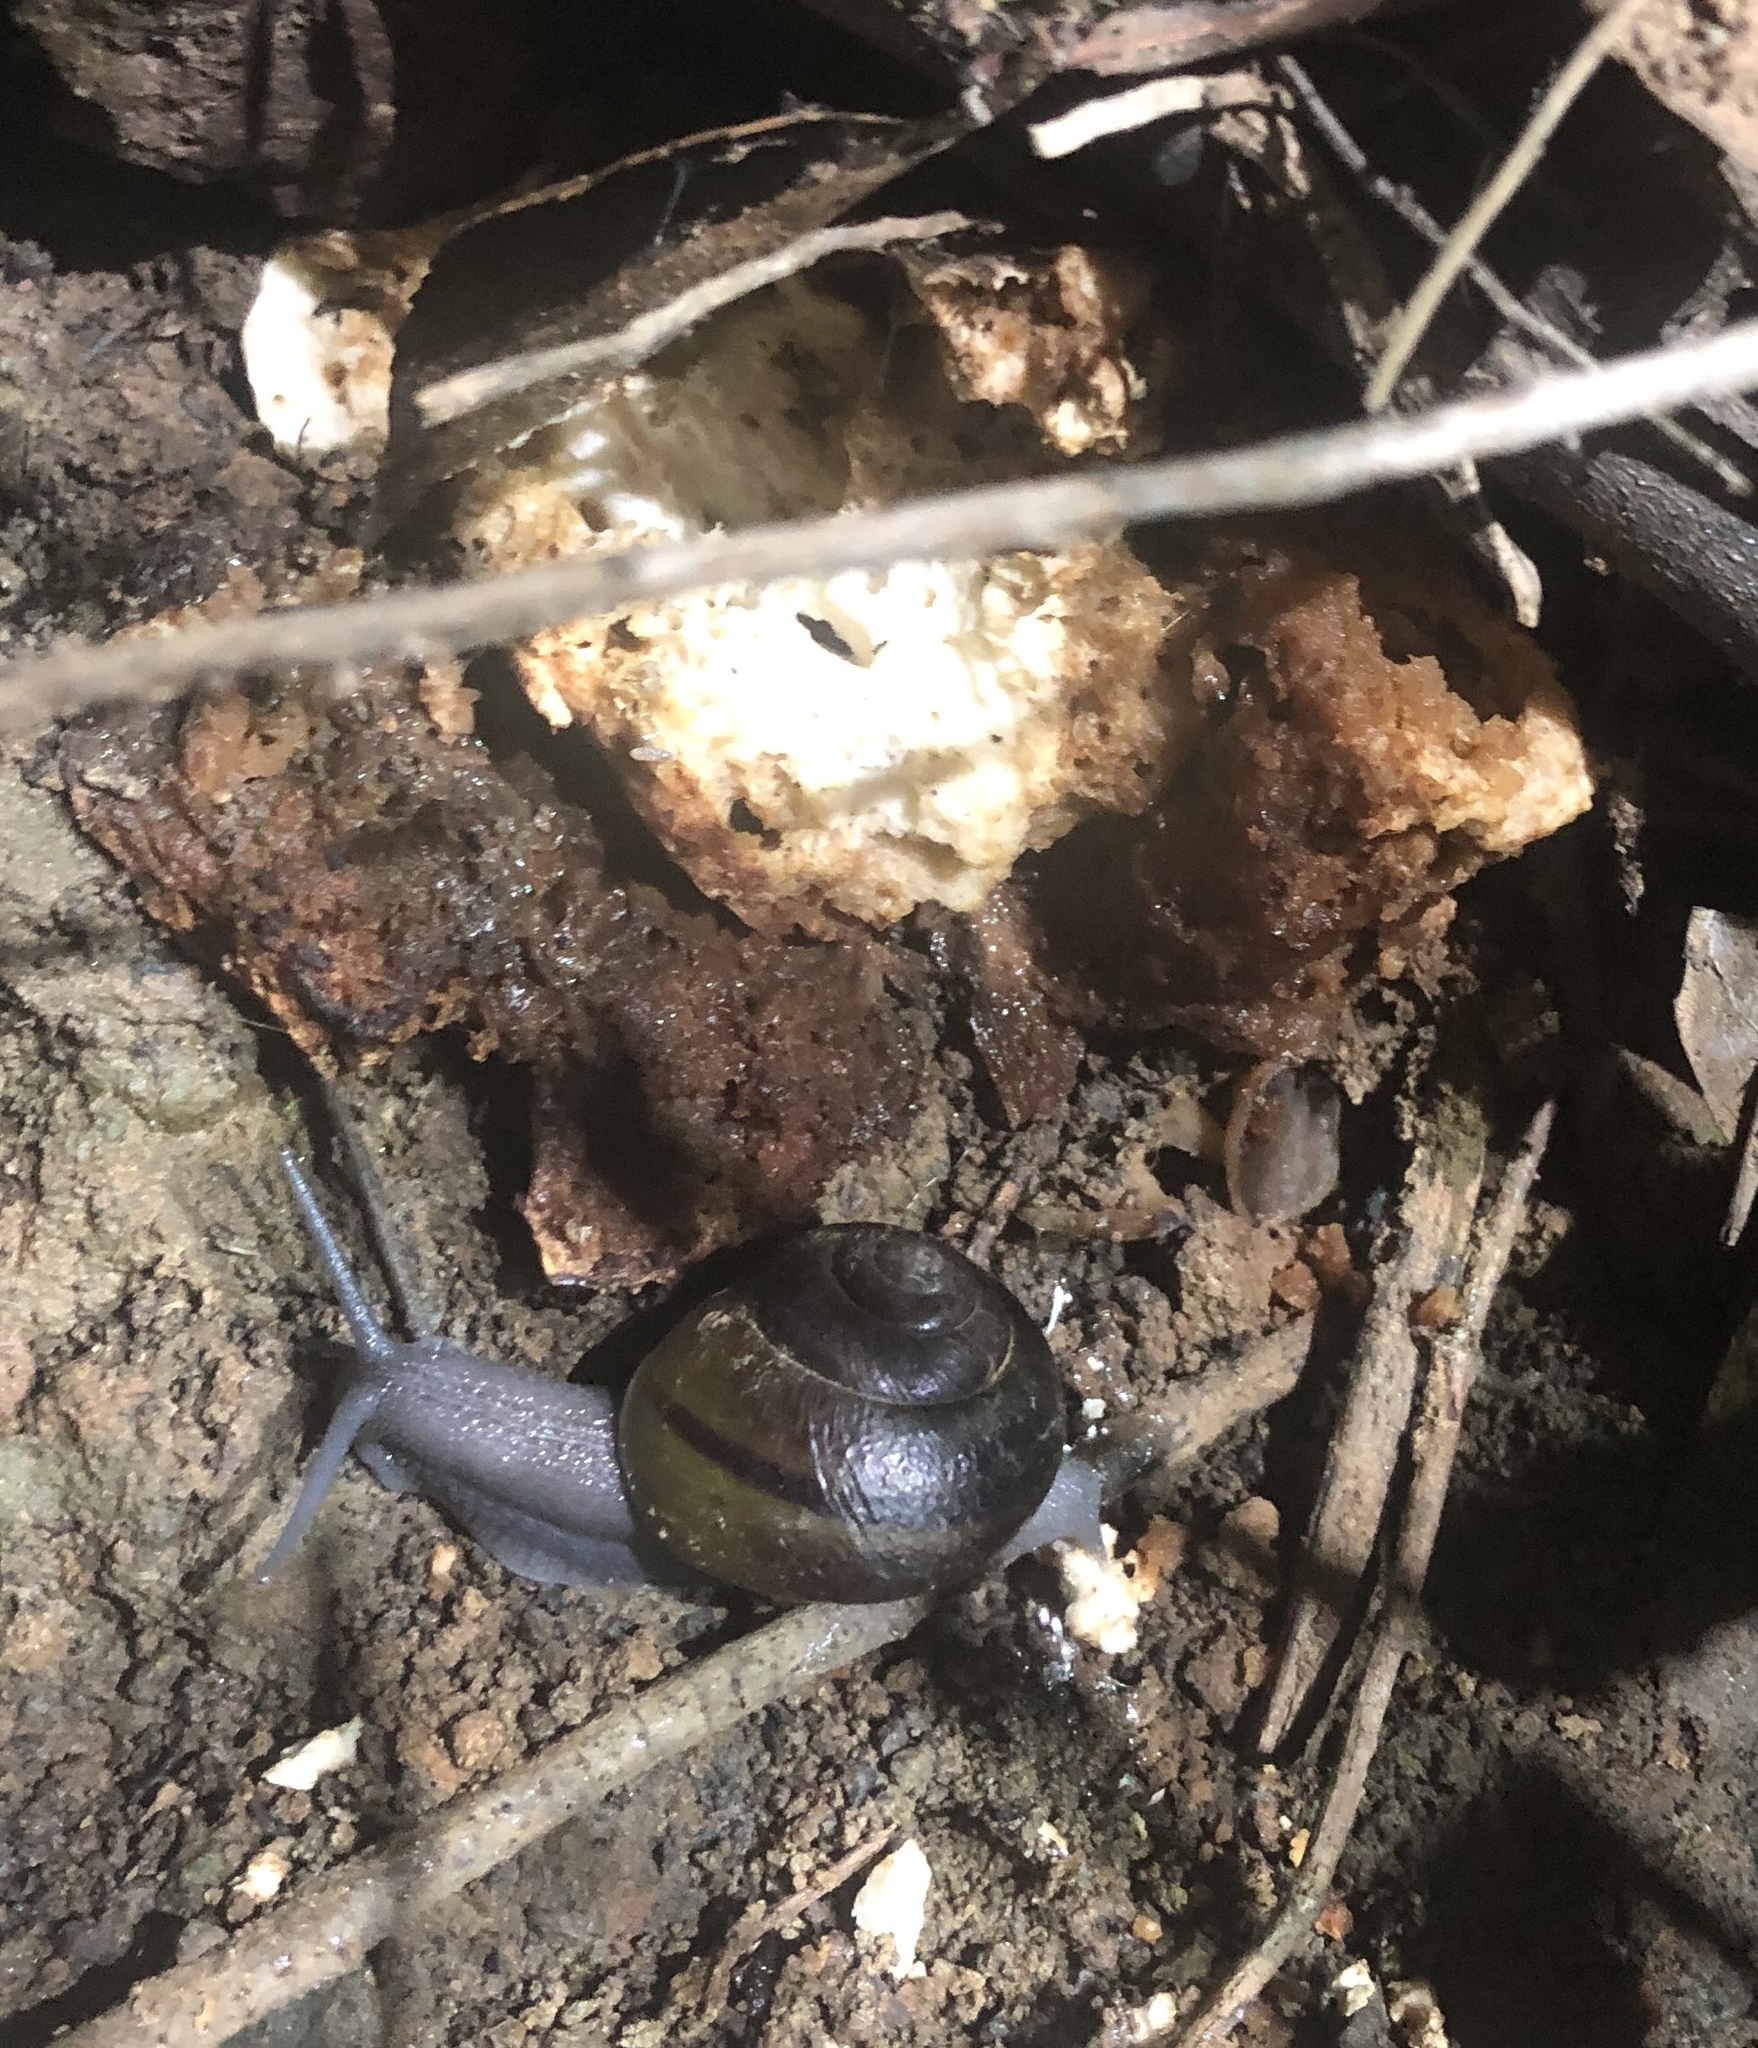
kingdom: Animalia
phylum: Mollusca
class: Gastropoda
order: Stylommatophora
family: Xanthonychidae
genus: Helminthoglypta
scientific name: Helminthoglypta tudiculata
